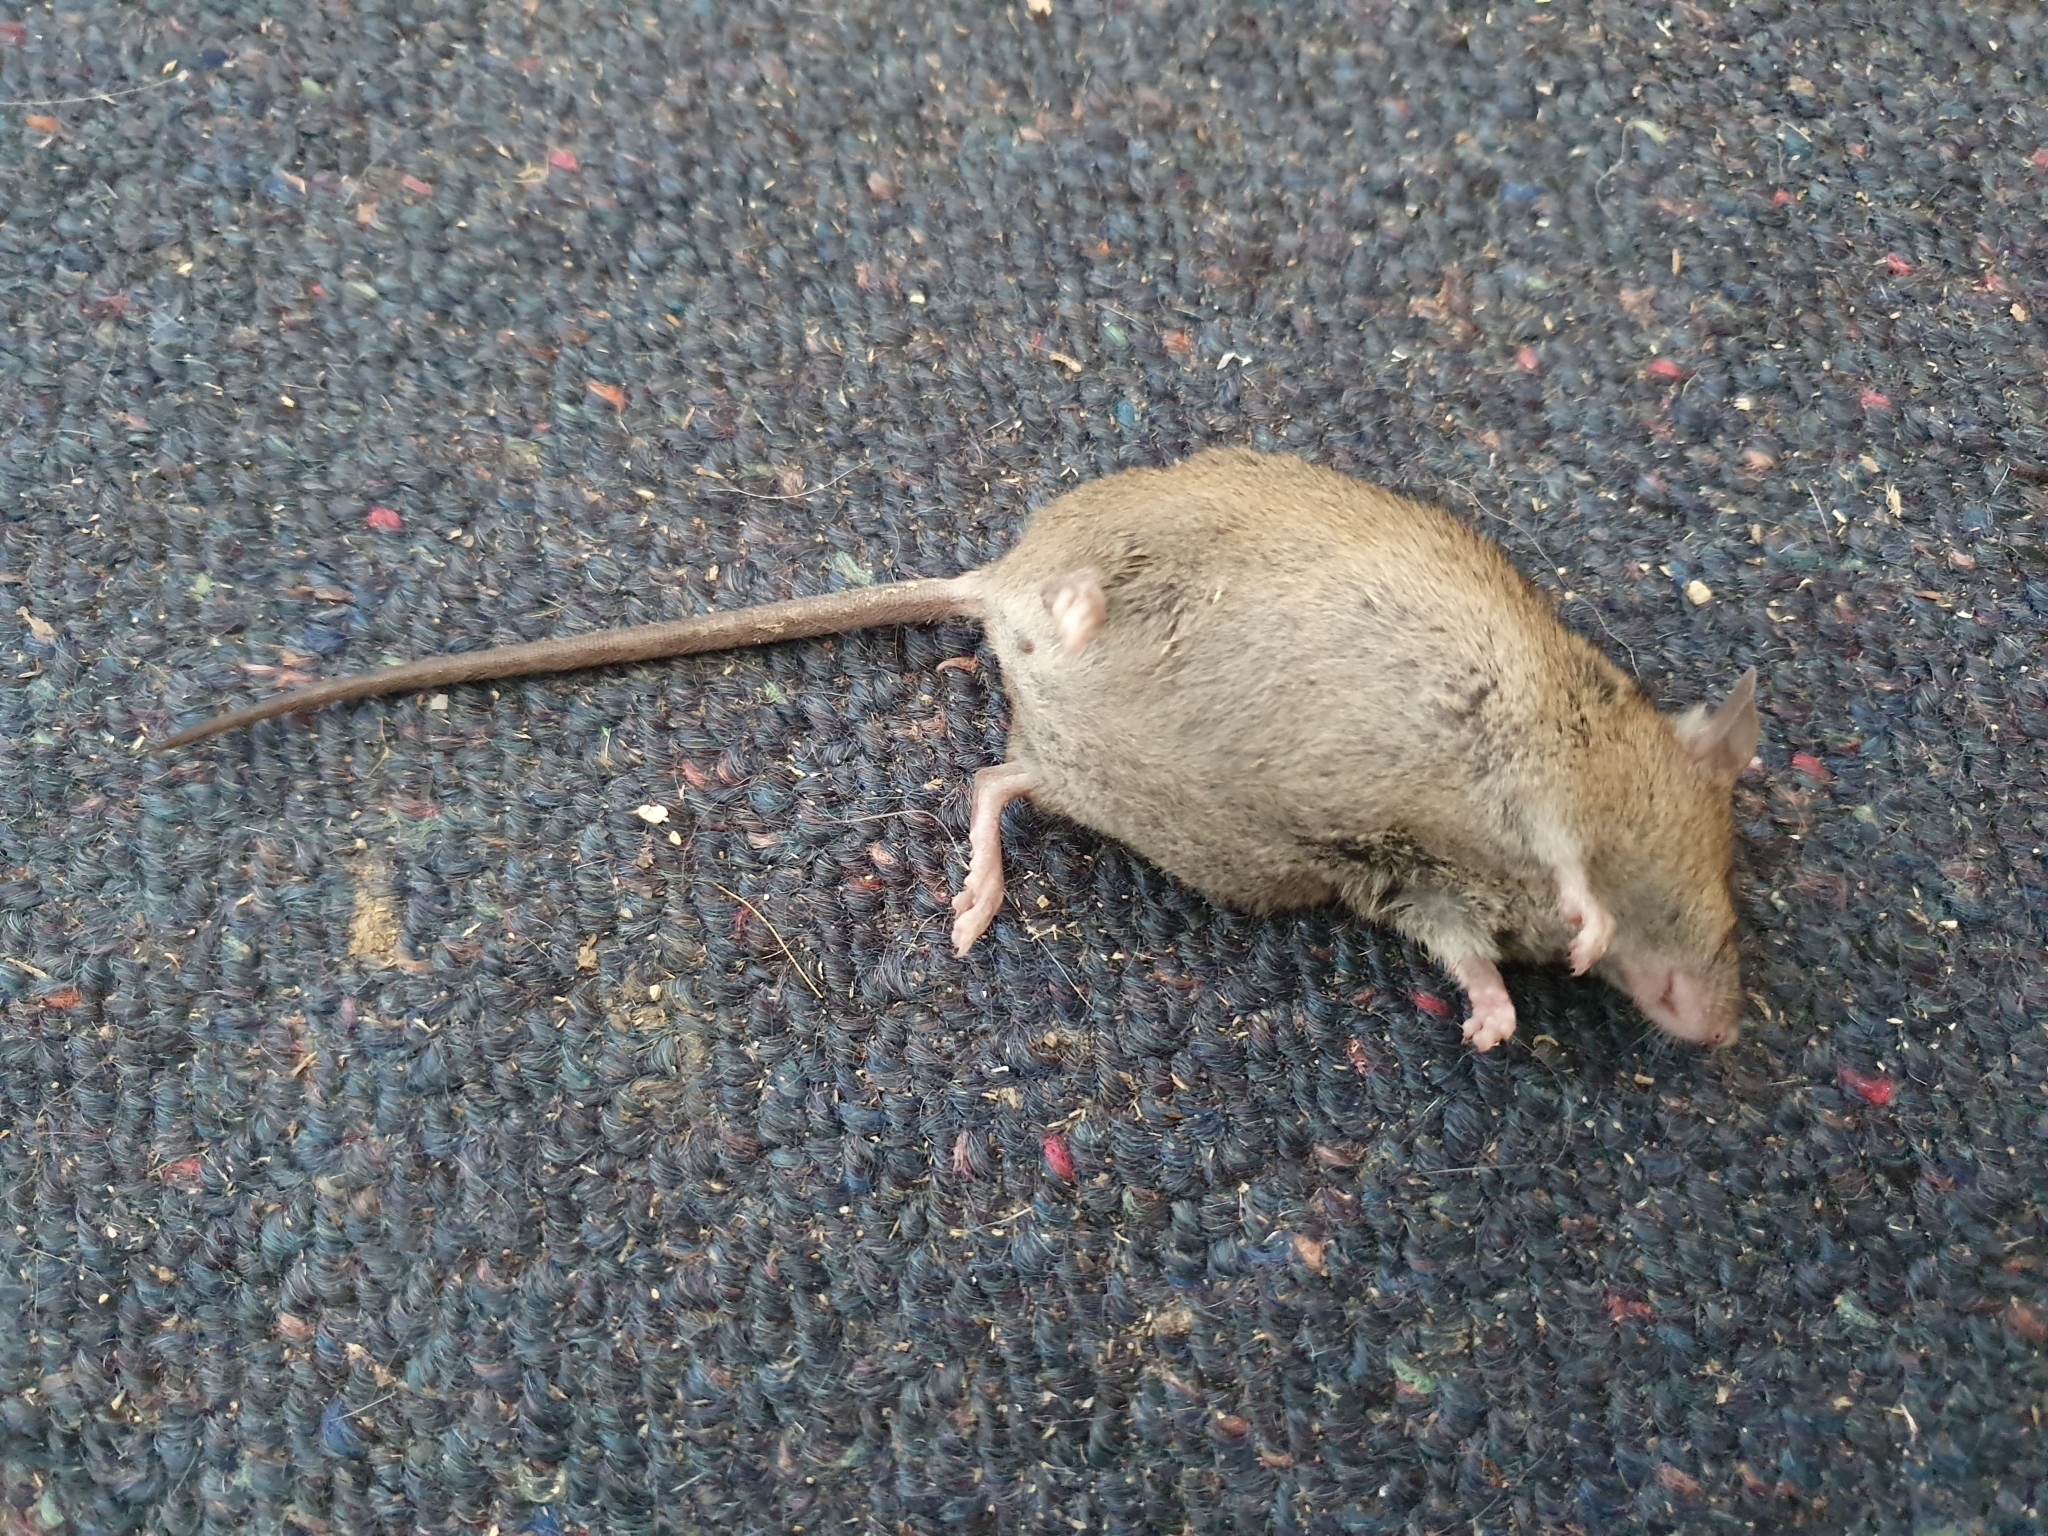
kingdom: Animalia
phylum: Chordata
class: Mammalia
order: Rodentia
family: Muridae
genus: Mus
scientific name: Mus musculus
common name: House mouse
